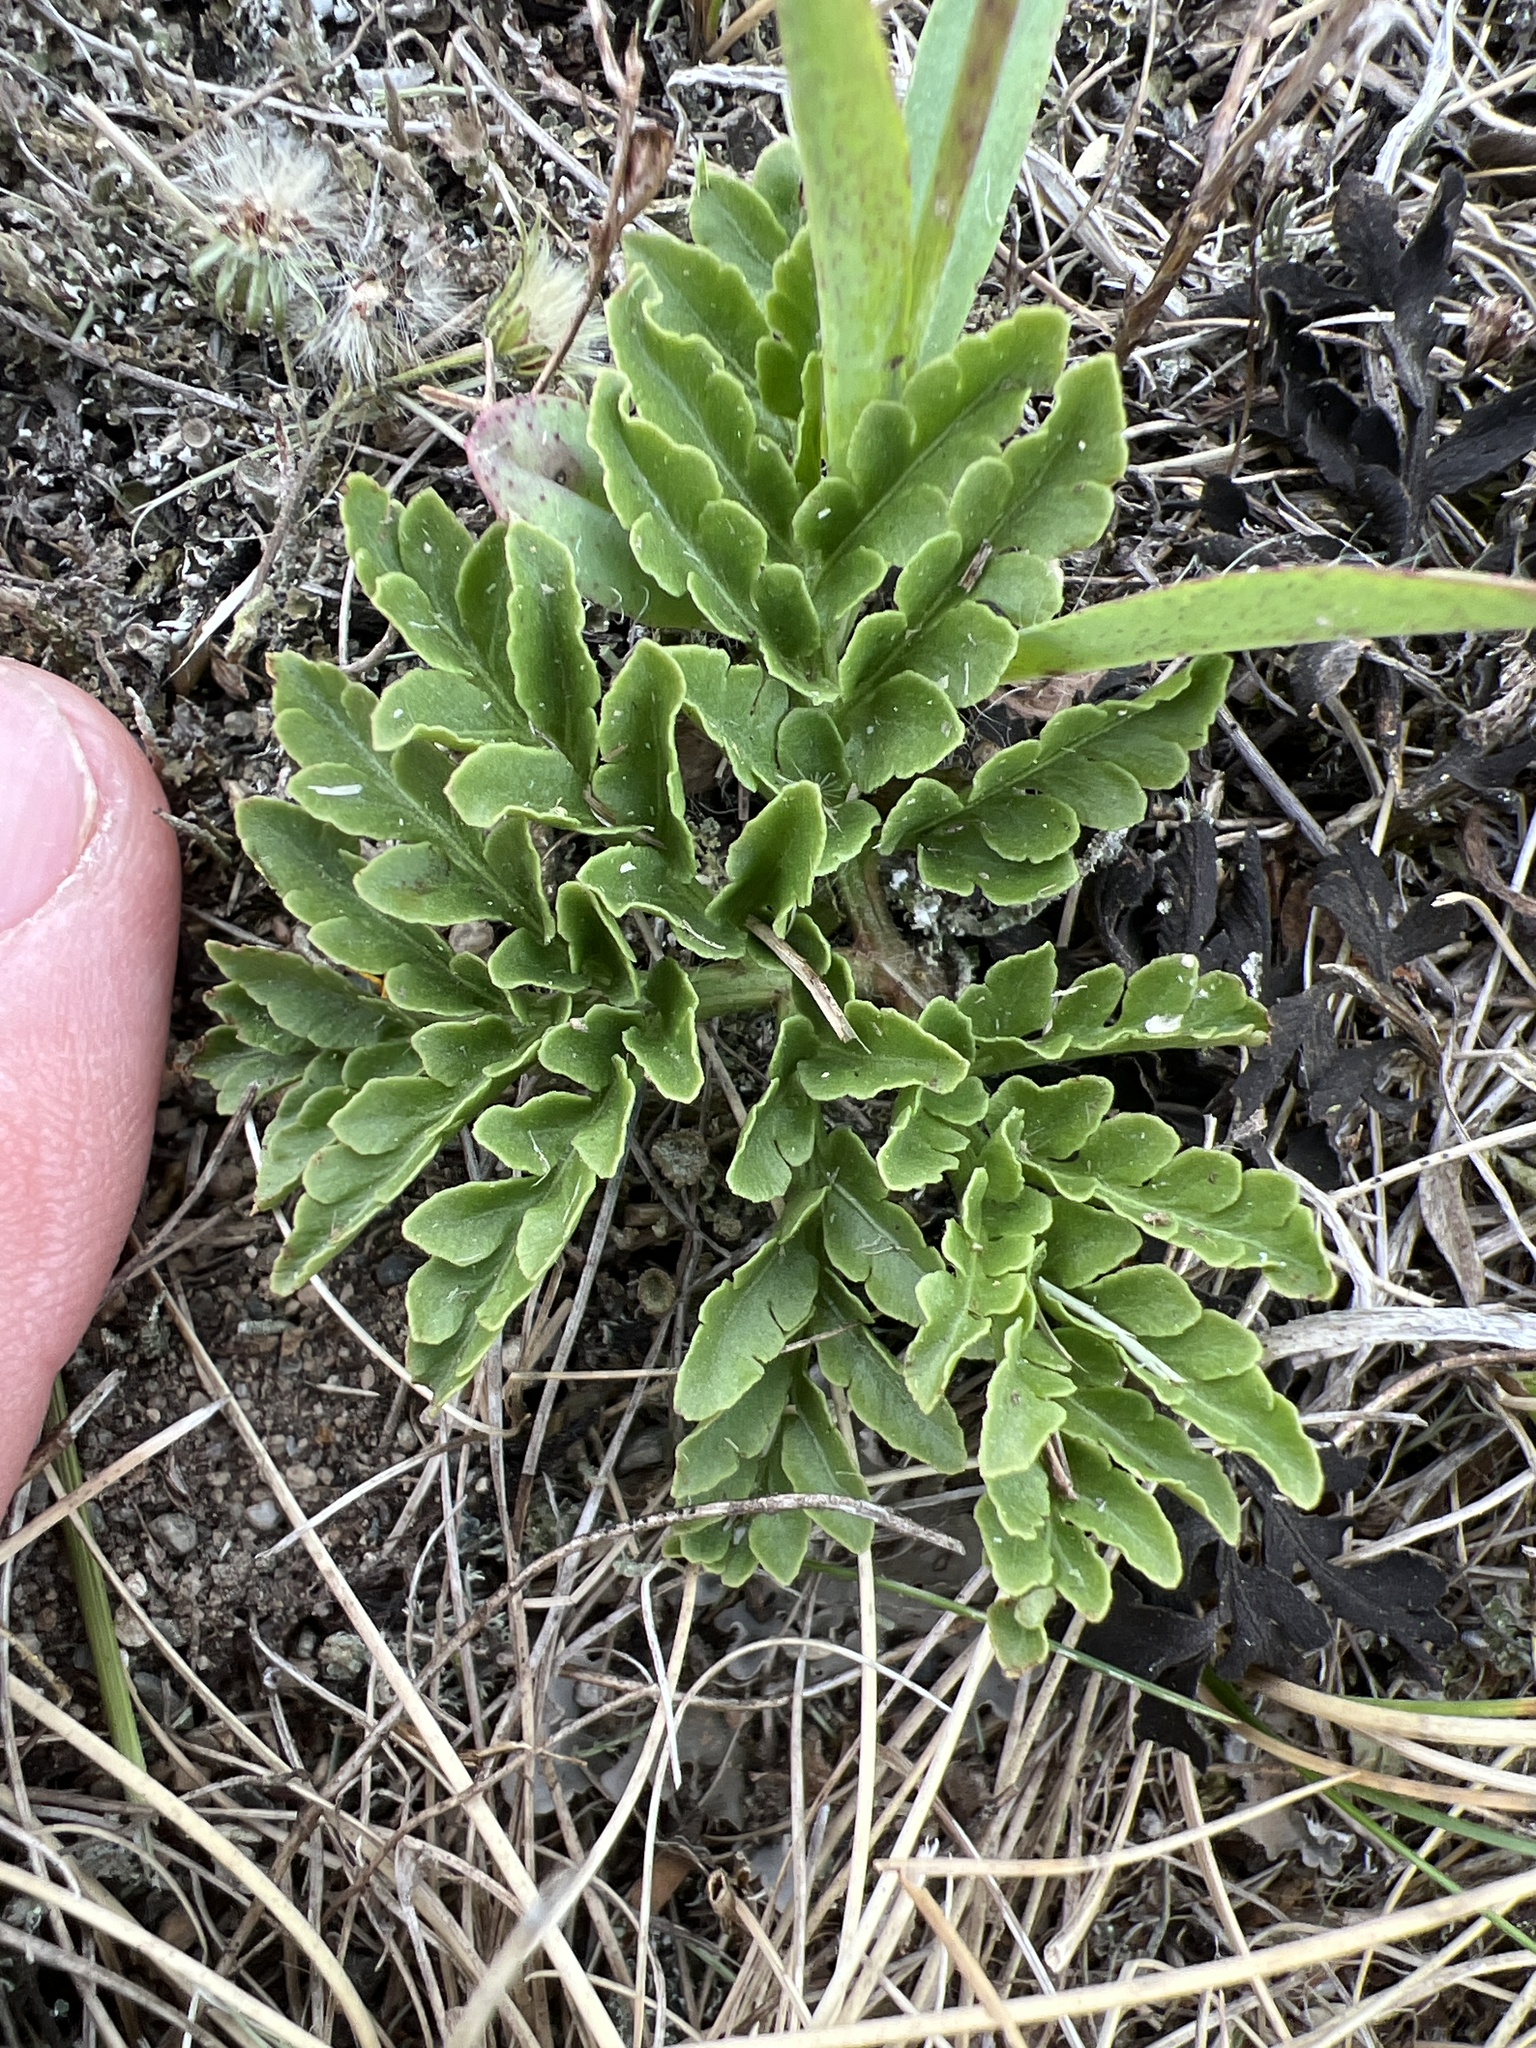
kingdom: Plantae
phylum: Tracheophyta
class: Polypodiopsida
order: Ophioglossales
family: Ophioglossaceae
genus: Sceptridium
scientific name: Sceptridium multifidum
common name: Leathery grape fern
